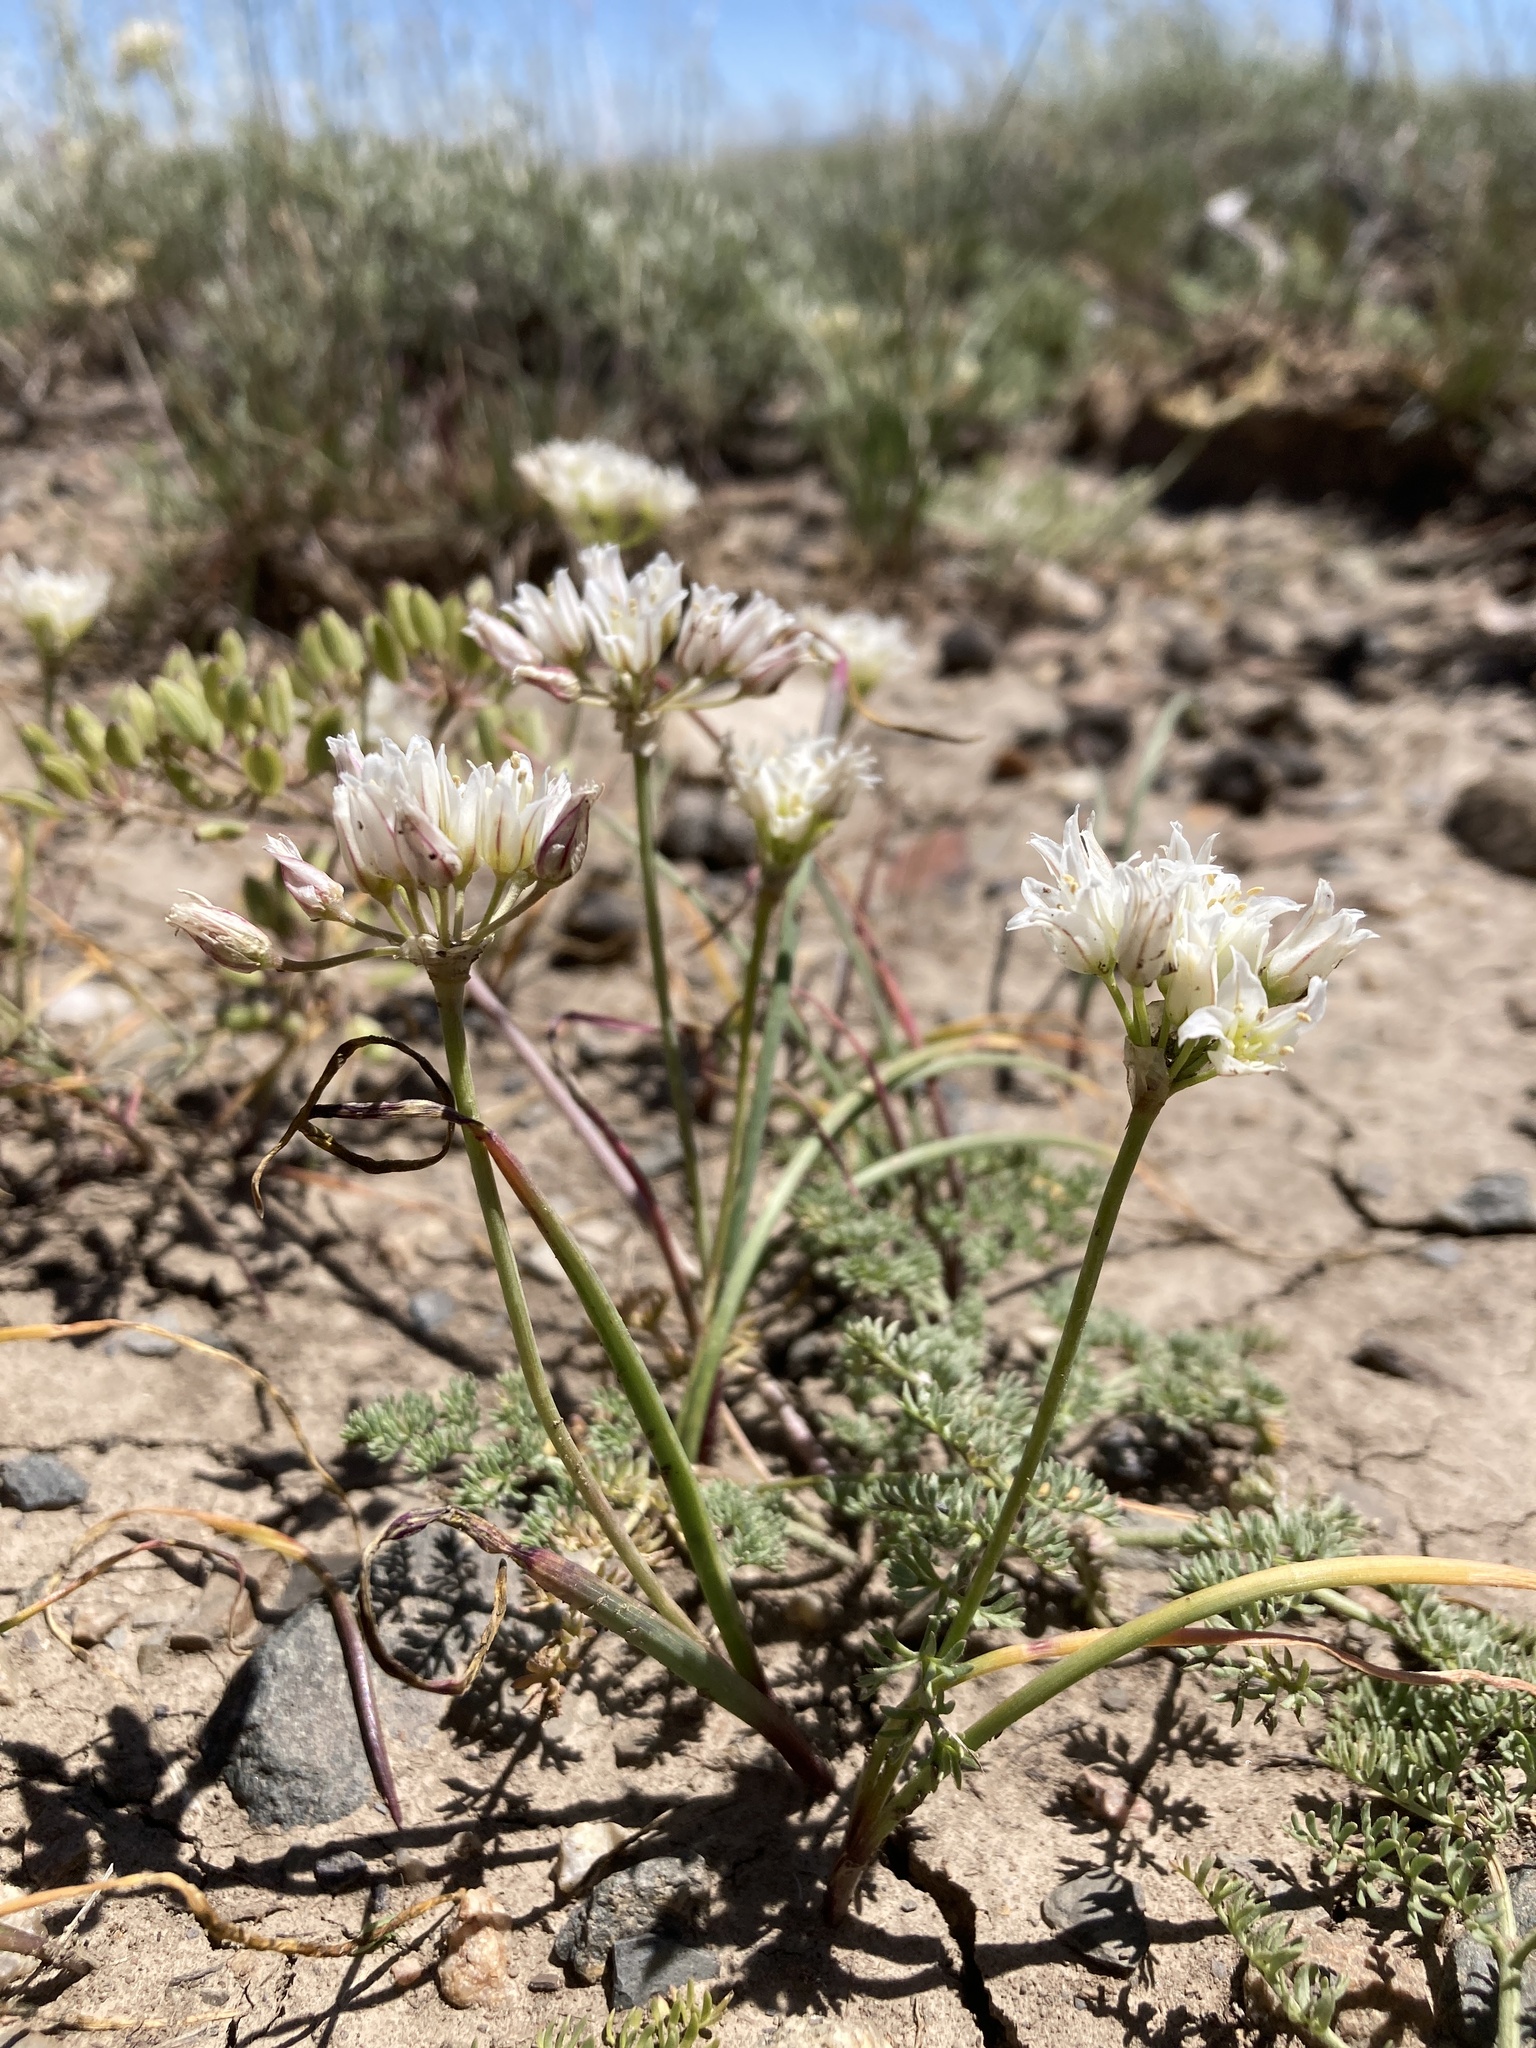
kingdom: Plantae
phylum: Tracheophyta
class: Liliopsida
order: Asparagales
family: Amaryllidaceae
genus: Allium
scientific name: Allium textile
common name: Prairie onion
